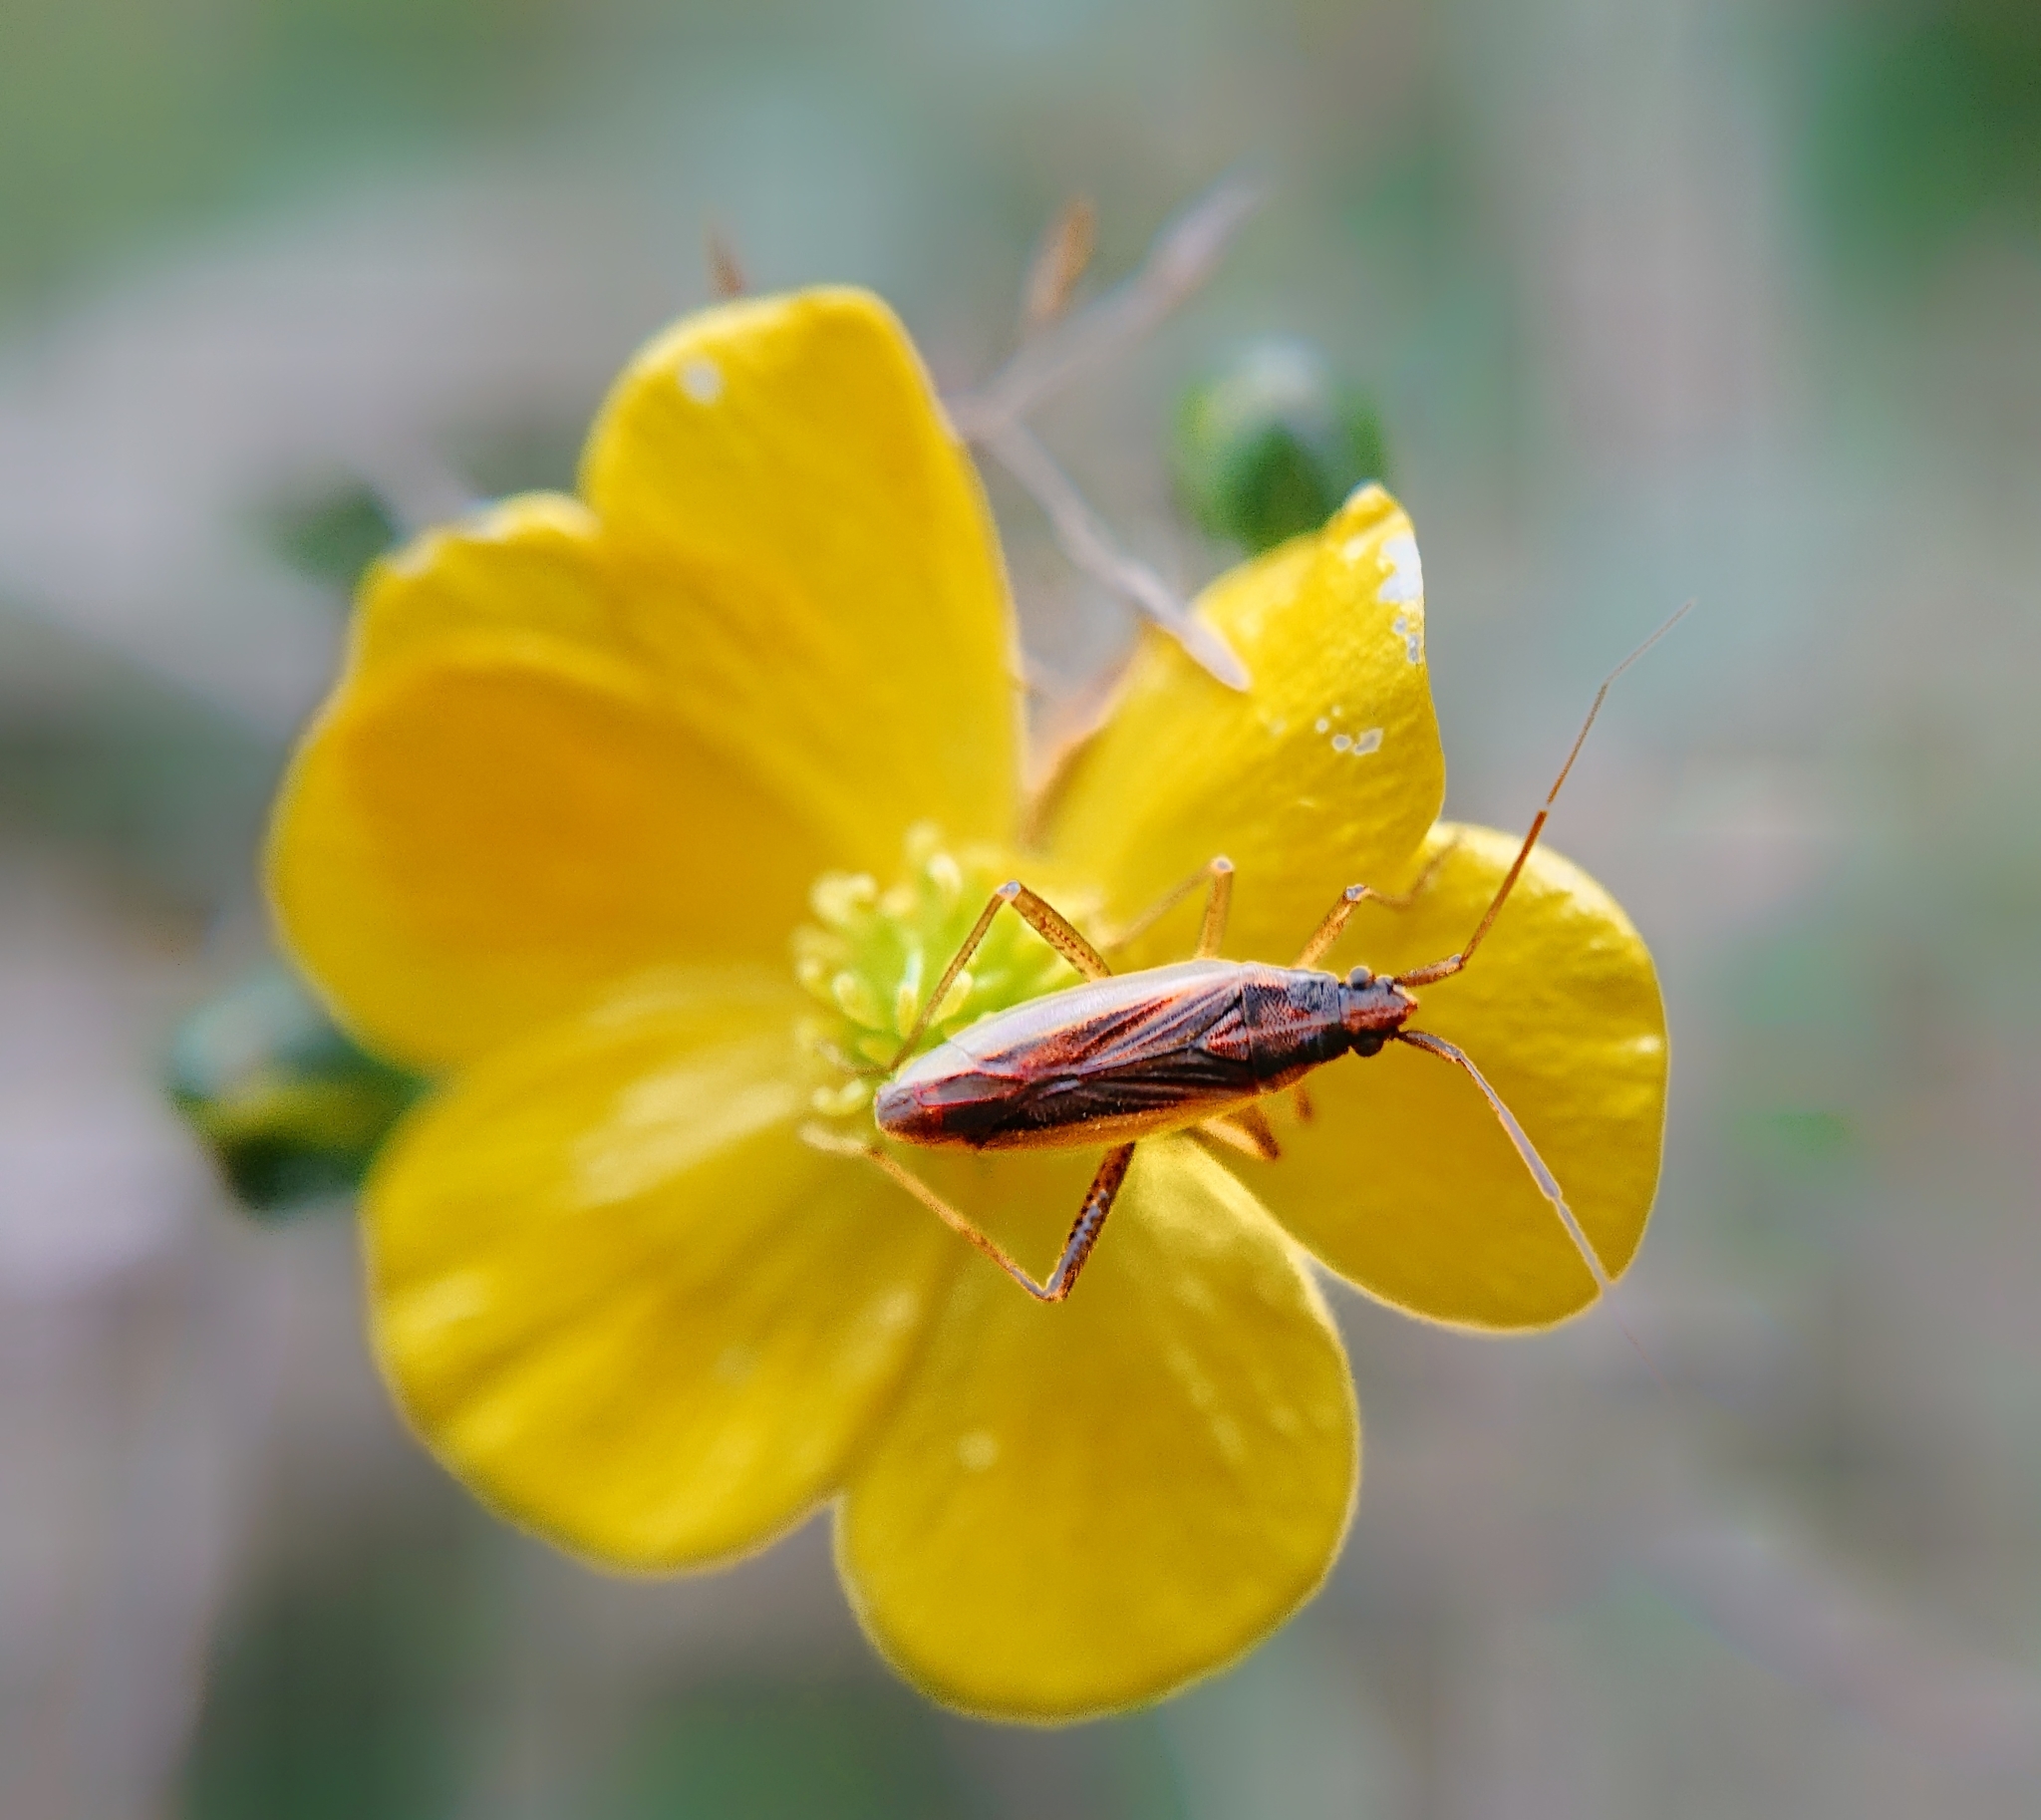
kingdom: Animalia
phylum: Arthropoda
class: Insecta
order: Hemiptera
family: Miridae
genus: Stenodema
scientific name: Stenodema holsata
